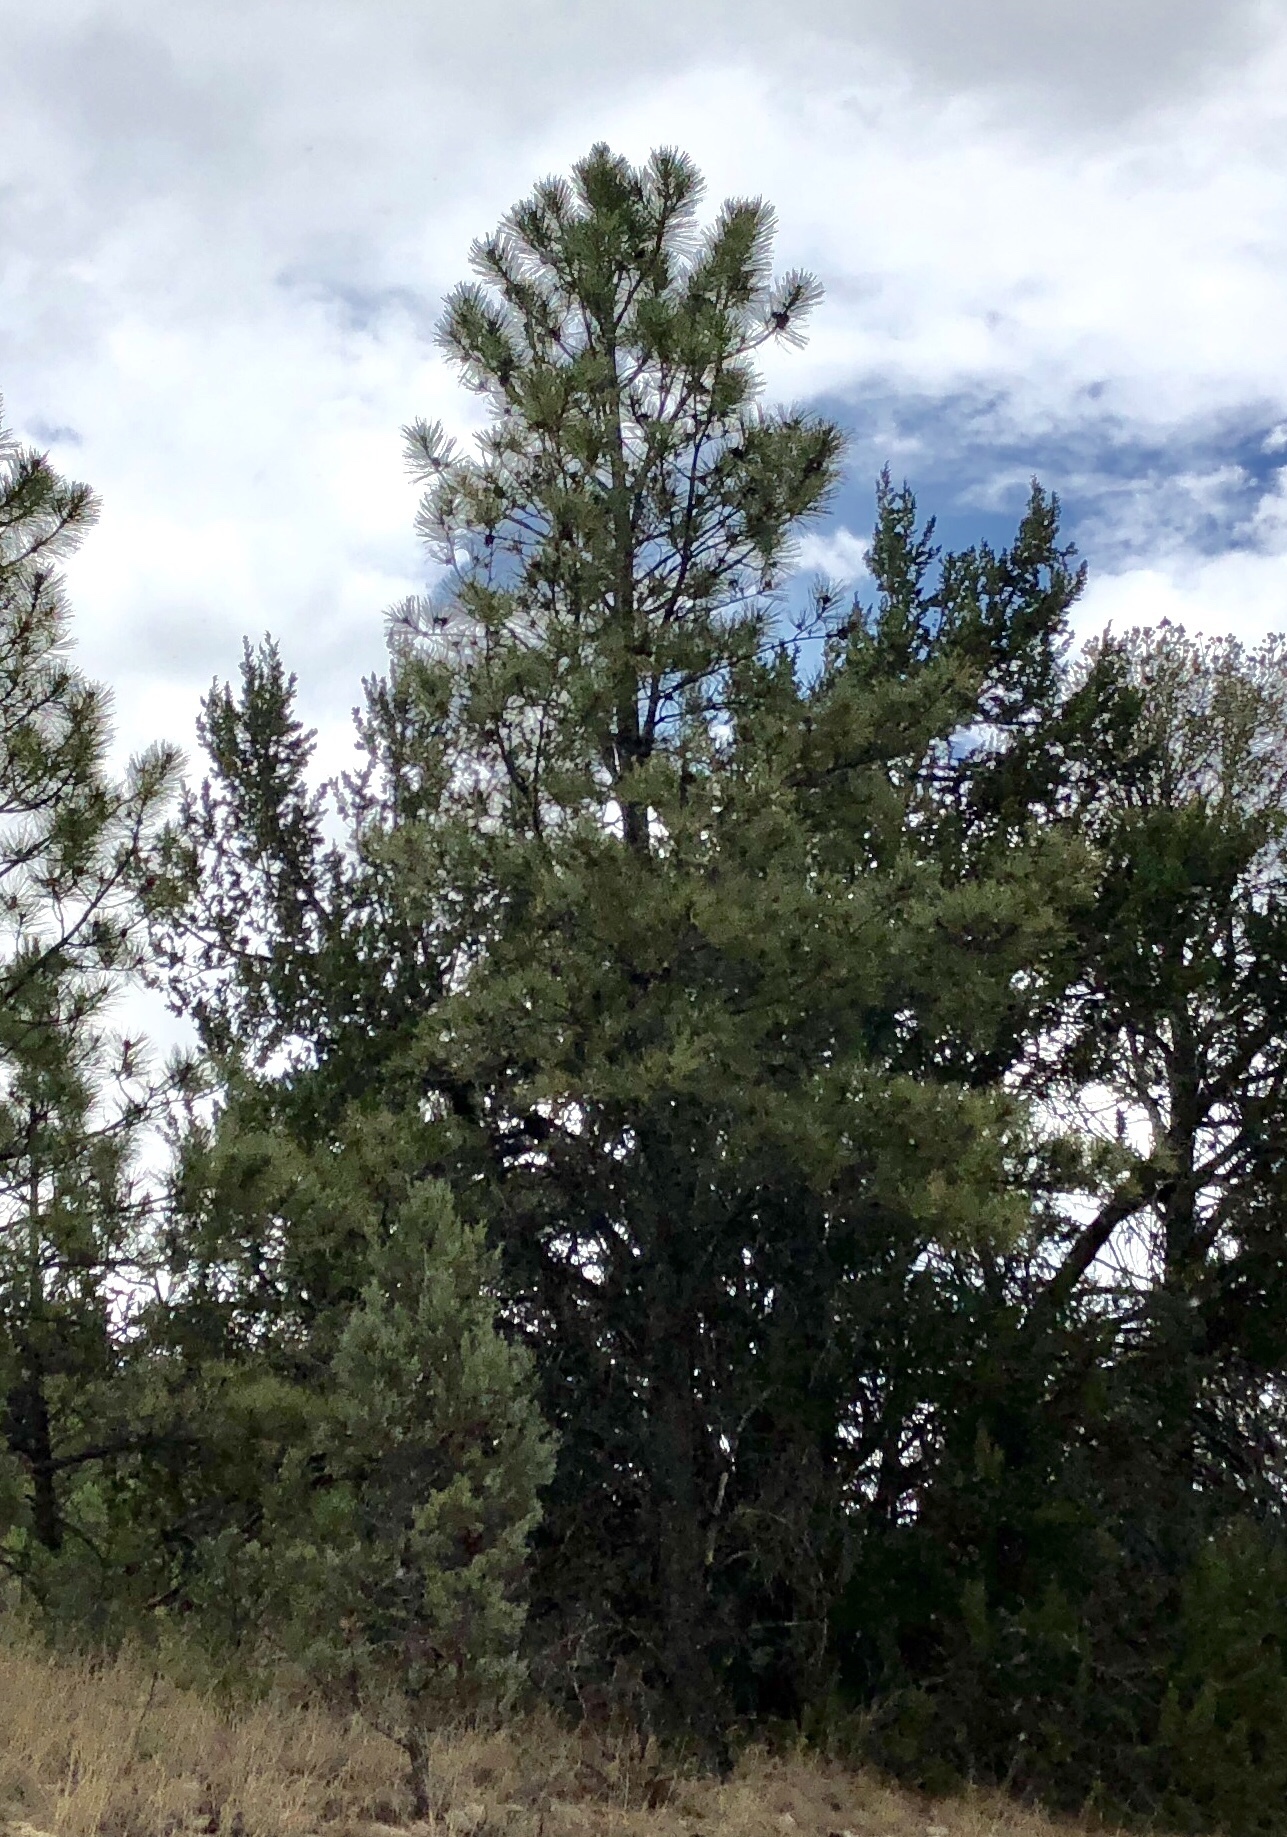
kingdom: Plantae
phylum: Tracheophyta
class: Pinopsida
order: Pinales
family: Pinaceae
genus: Pinus
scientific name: Pinus ponderosa
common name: Western yellow-pine
